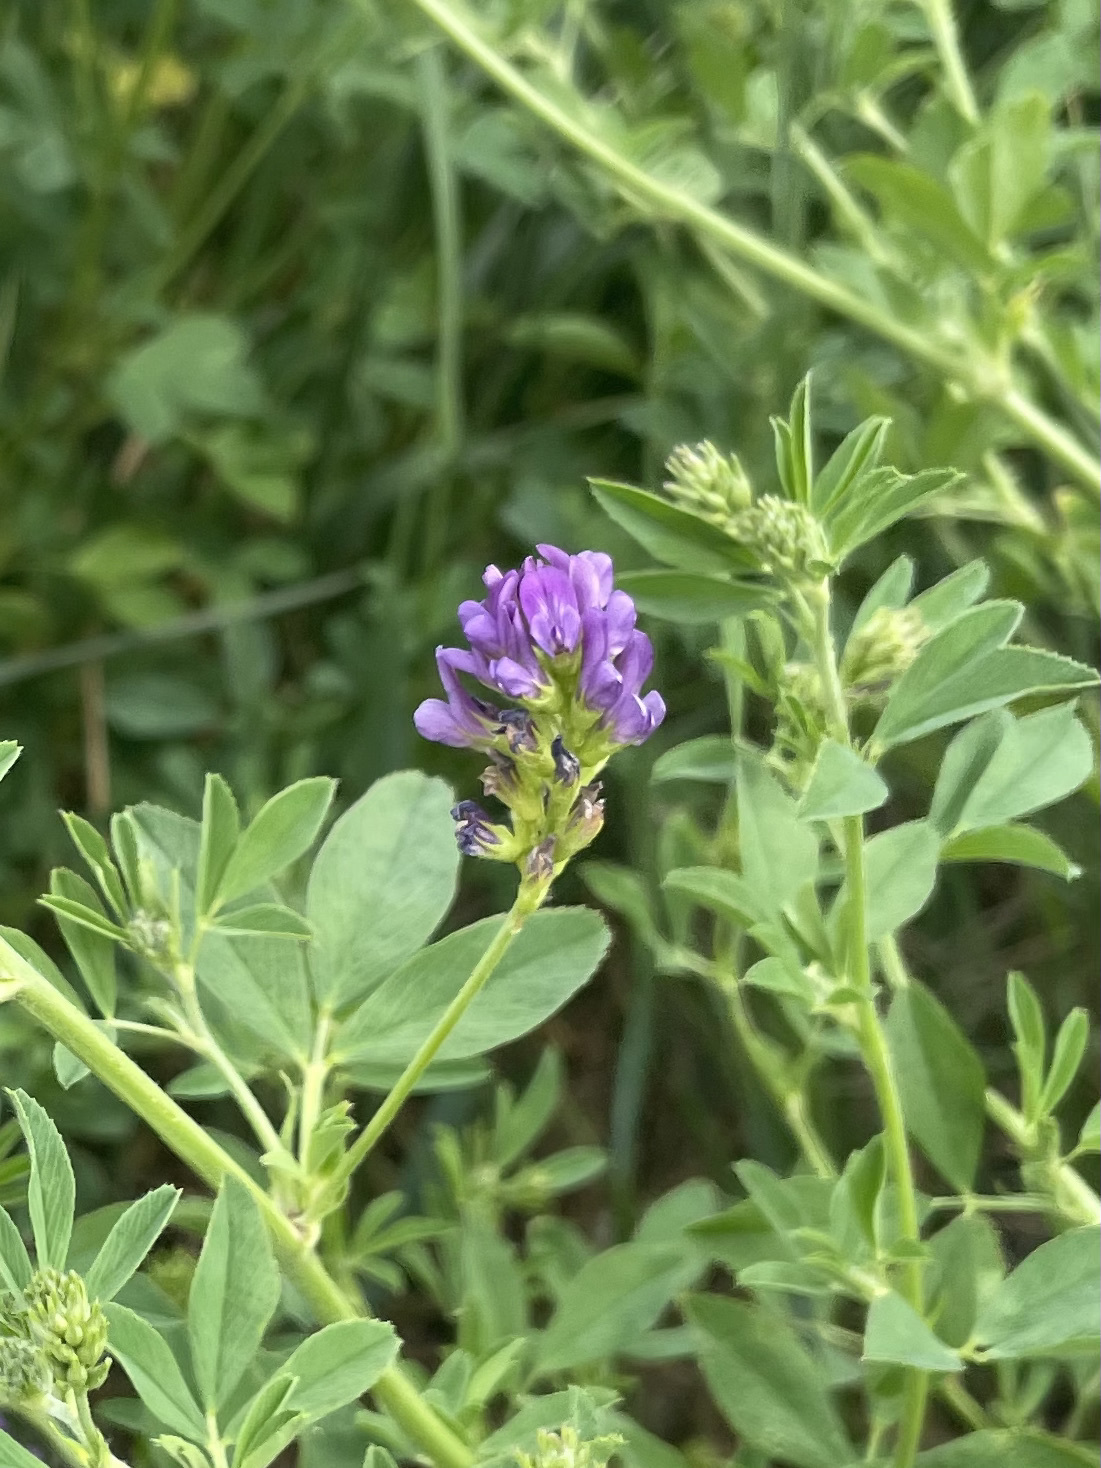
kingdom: Plantae
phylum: Tracheophyta
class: Magnoliopsida
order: Fabales
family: Fabaceae
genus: Medicago
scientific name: Medicago sativa
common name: Alfalfa
